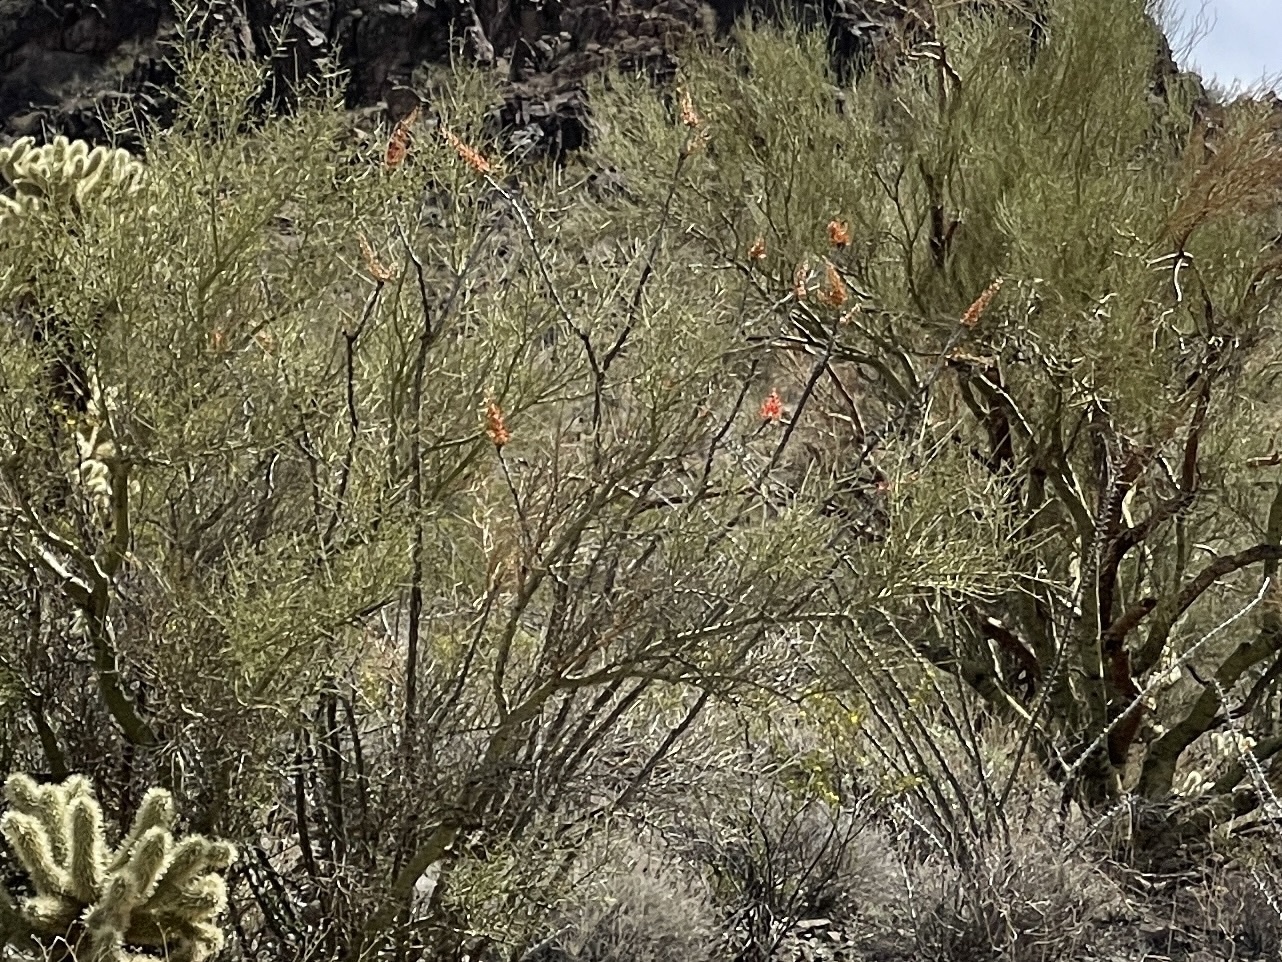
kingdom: Plantae
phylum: Tracheophyta
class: Magnoliopsida
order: Ericales
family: Fouquieriaceae
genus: Fouquieria
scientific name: Fouquieria splendens
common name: Vine-cactus
